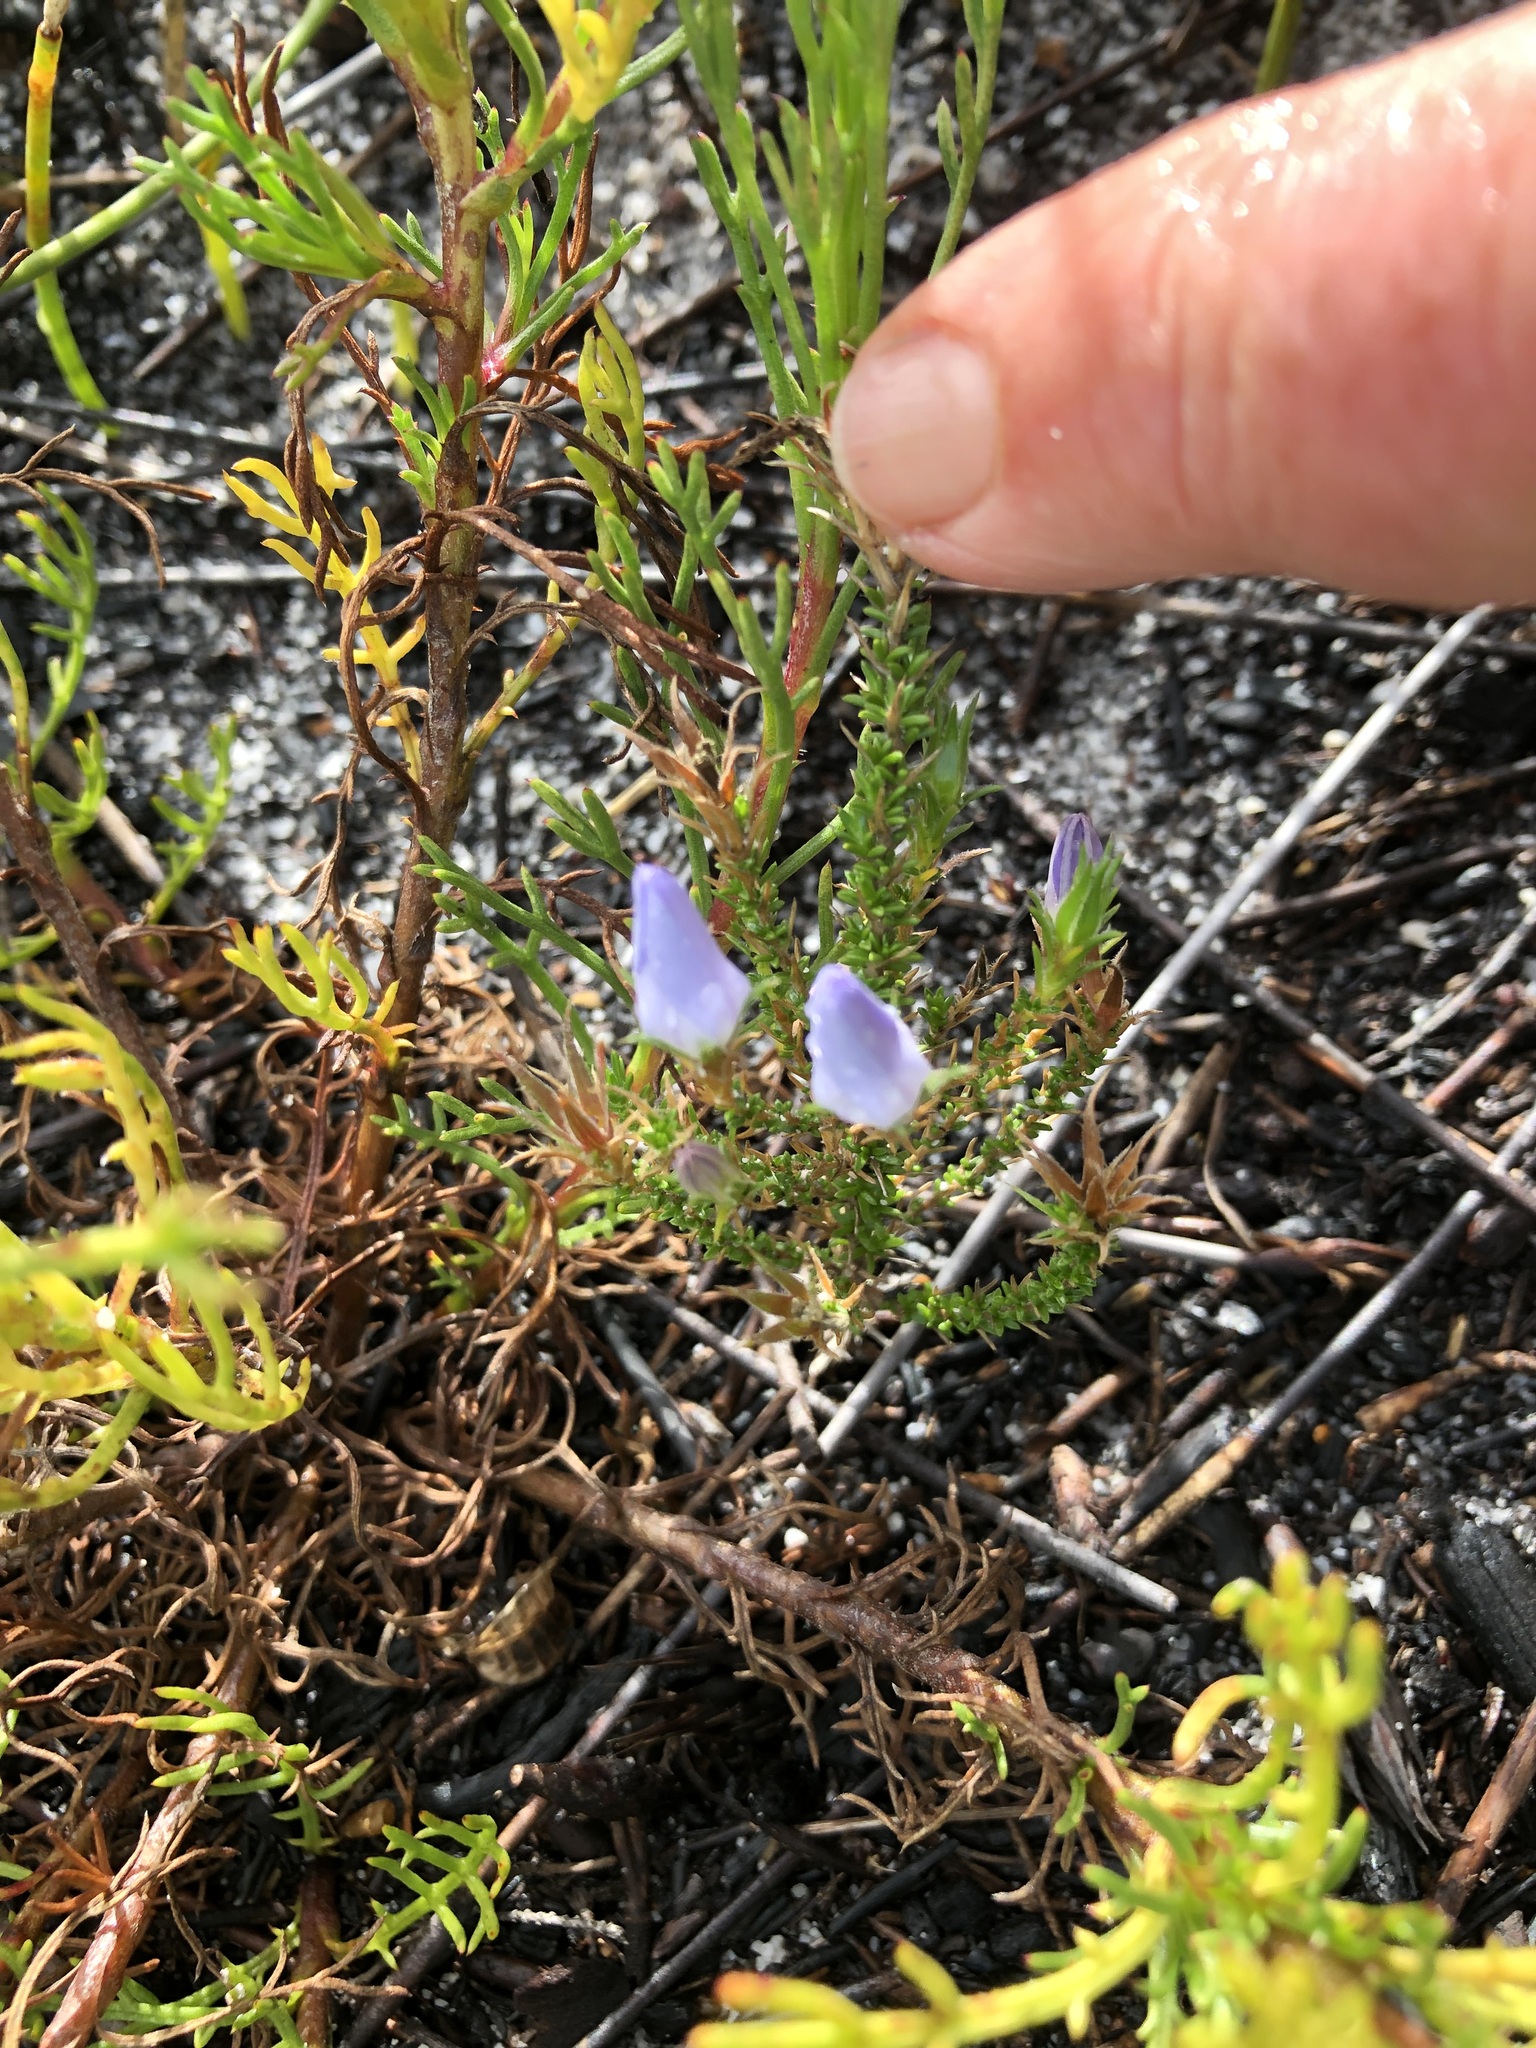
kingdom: Plantae
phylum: Tracheophyta
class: Magnoliopsida
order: Asterales
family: Asteraceae
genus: Senecio
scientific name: Senecio pubigerus
